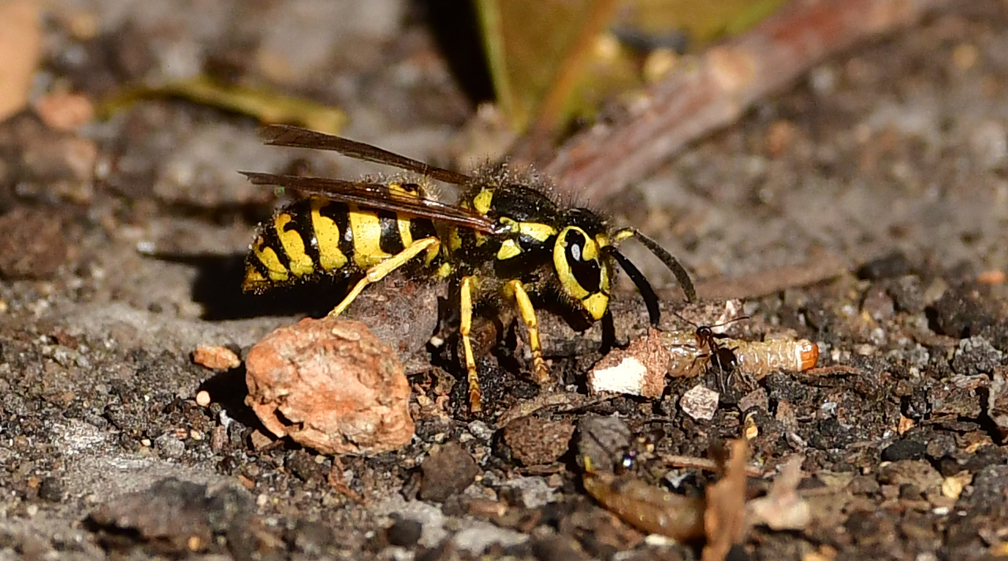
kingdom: Animalia
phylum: Arthropoda
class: Insecta
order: Hymenoptera
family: Vespidae
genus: Vespula
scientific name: Vespula pensylvanica
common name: Western yellowjacket
